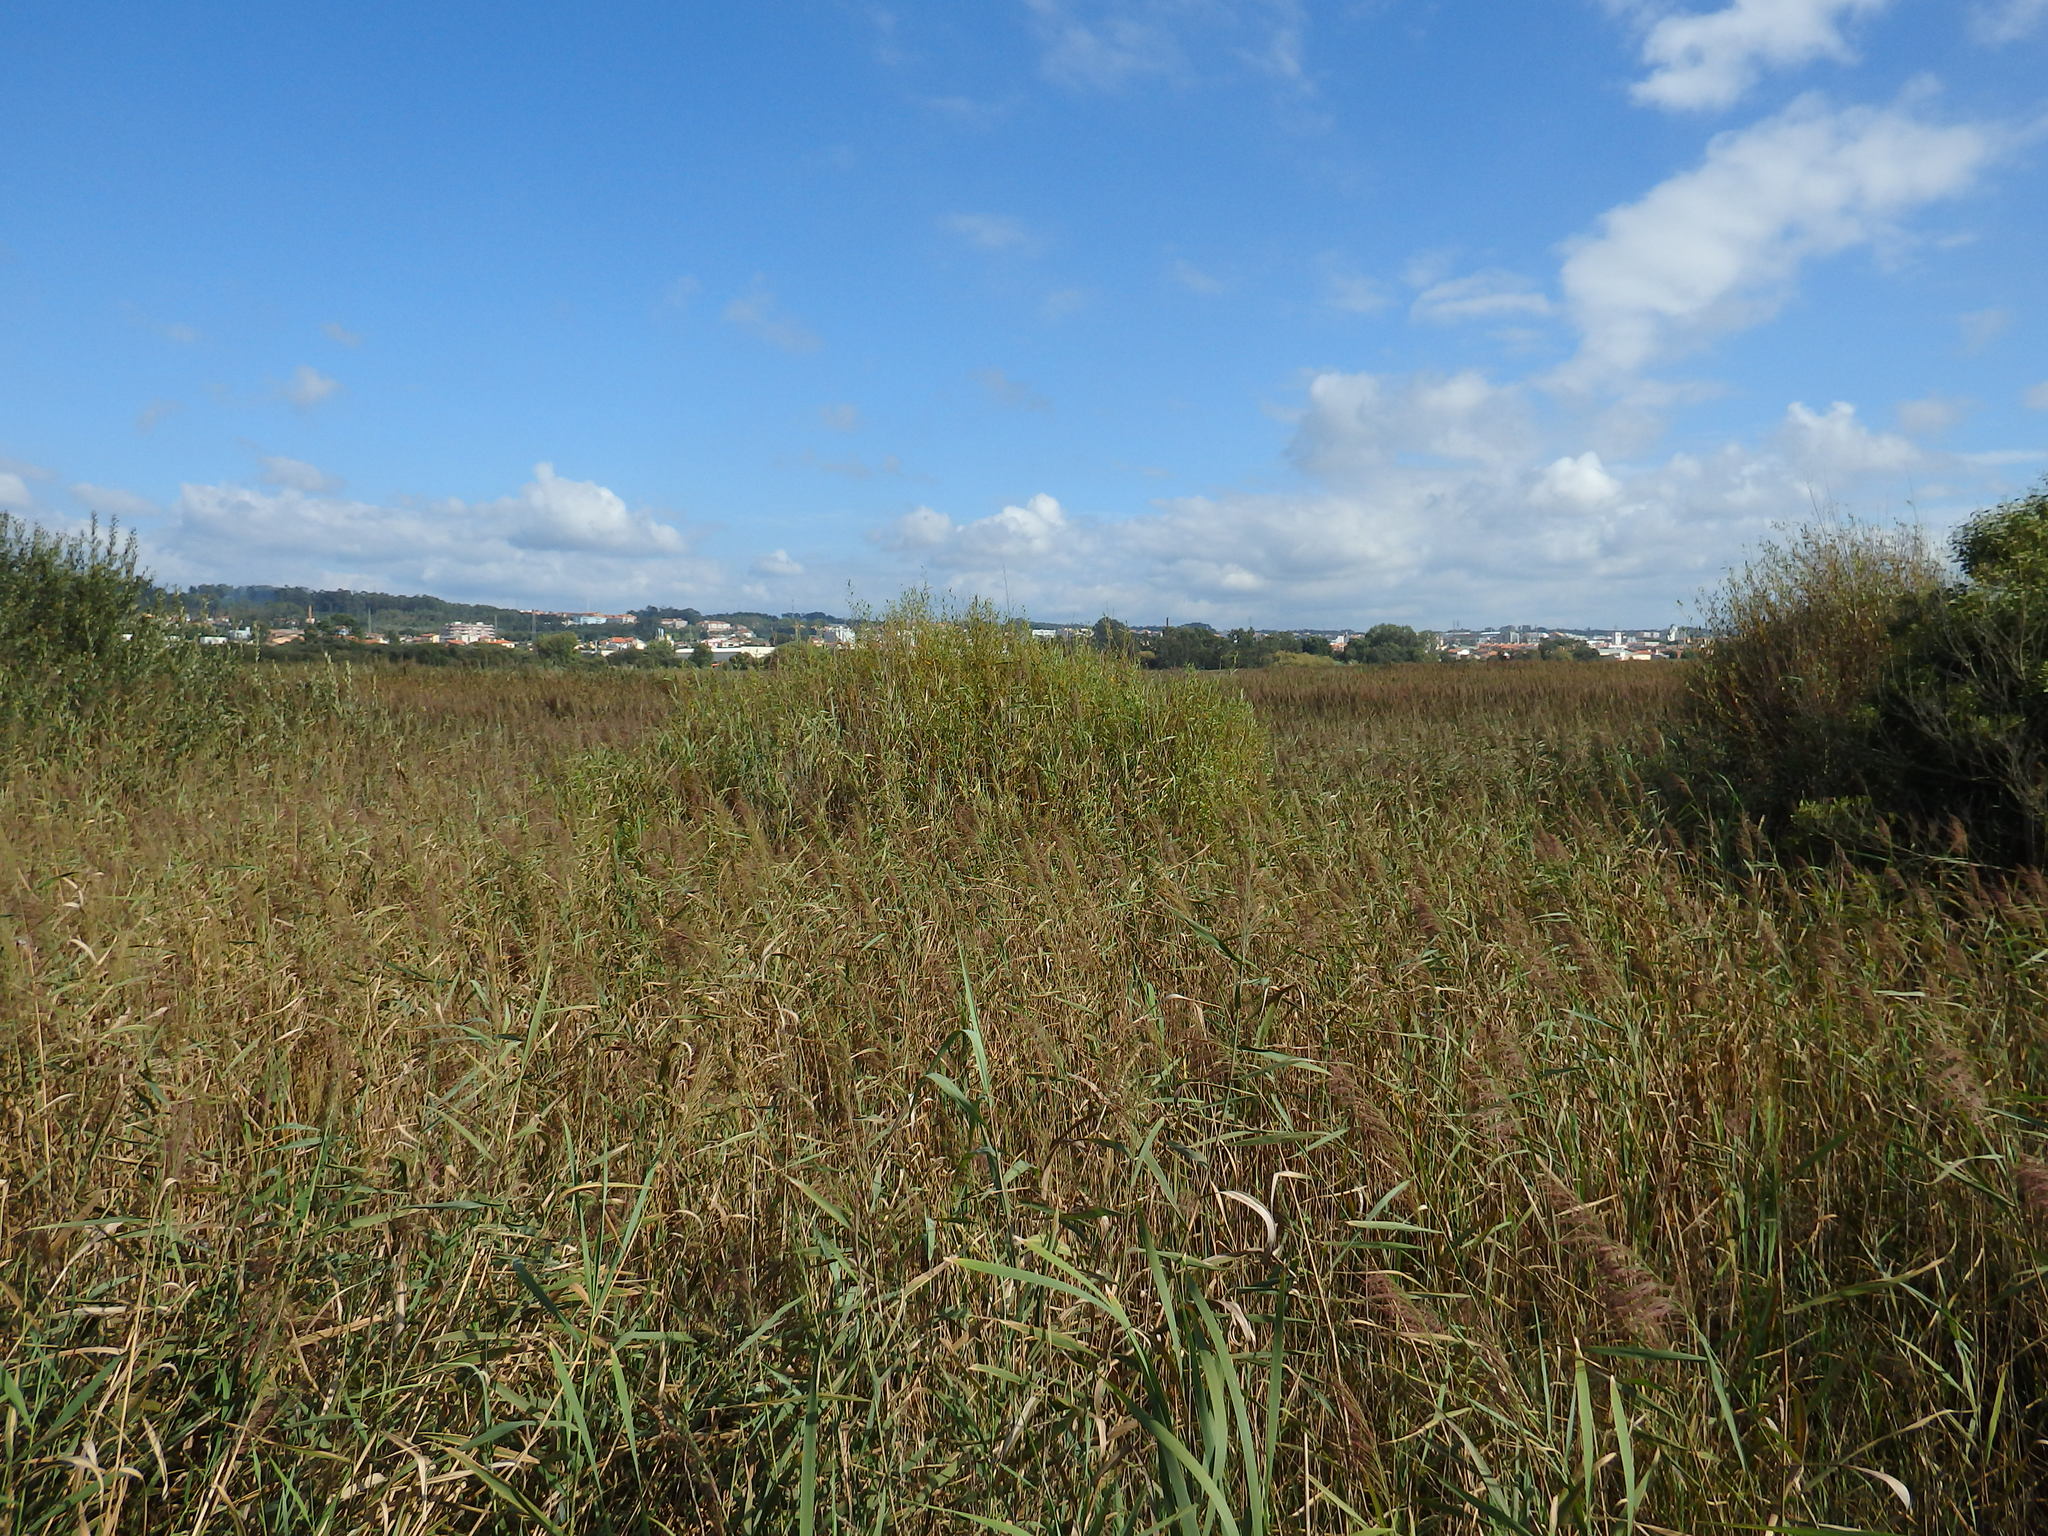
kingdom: Plantae
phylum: Tracheophyta
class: Liliopsida
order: Poales
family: Poaceae
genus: Phragmites
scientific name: Phragmites australis
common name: Common reed
